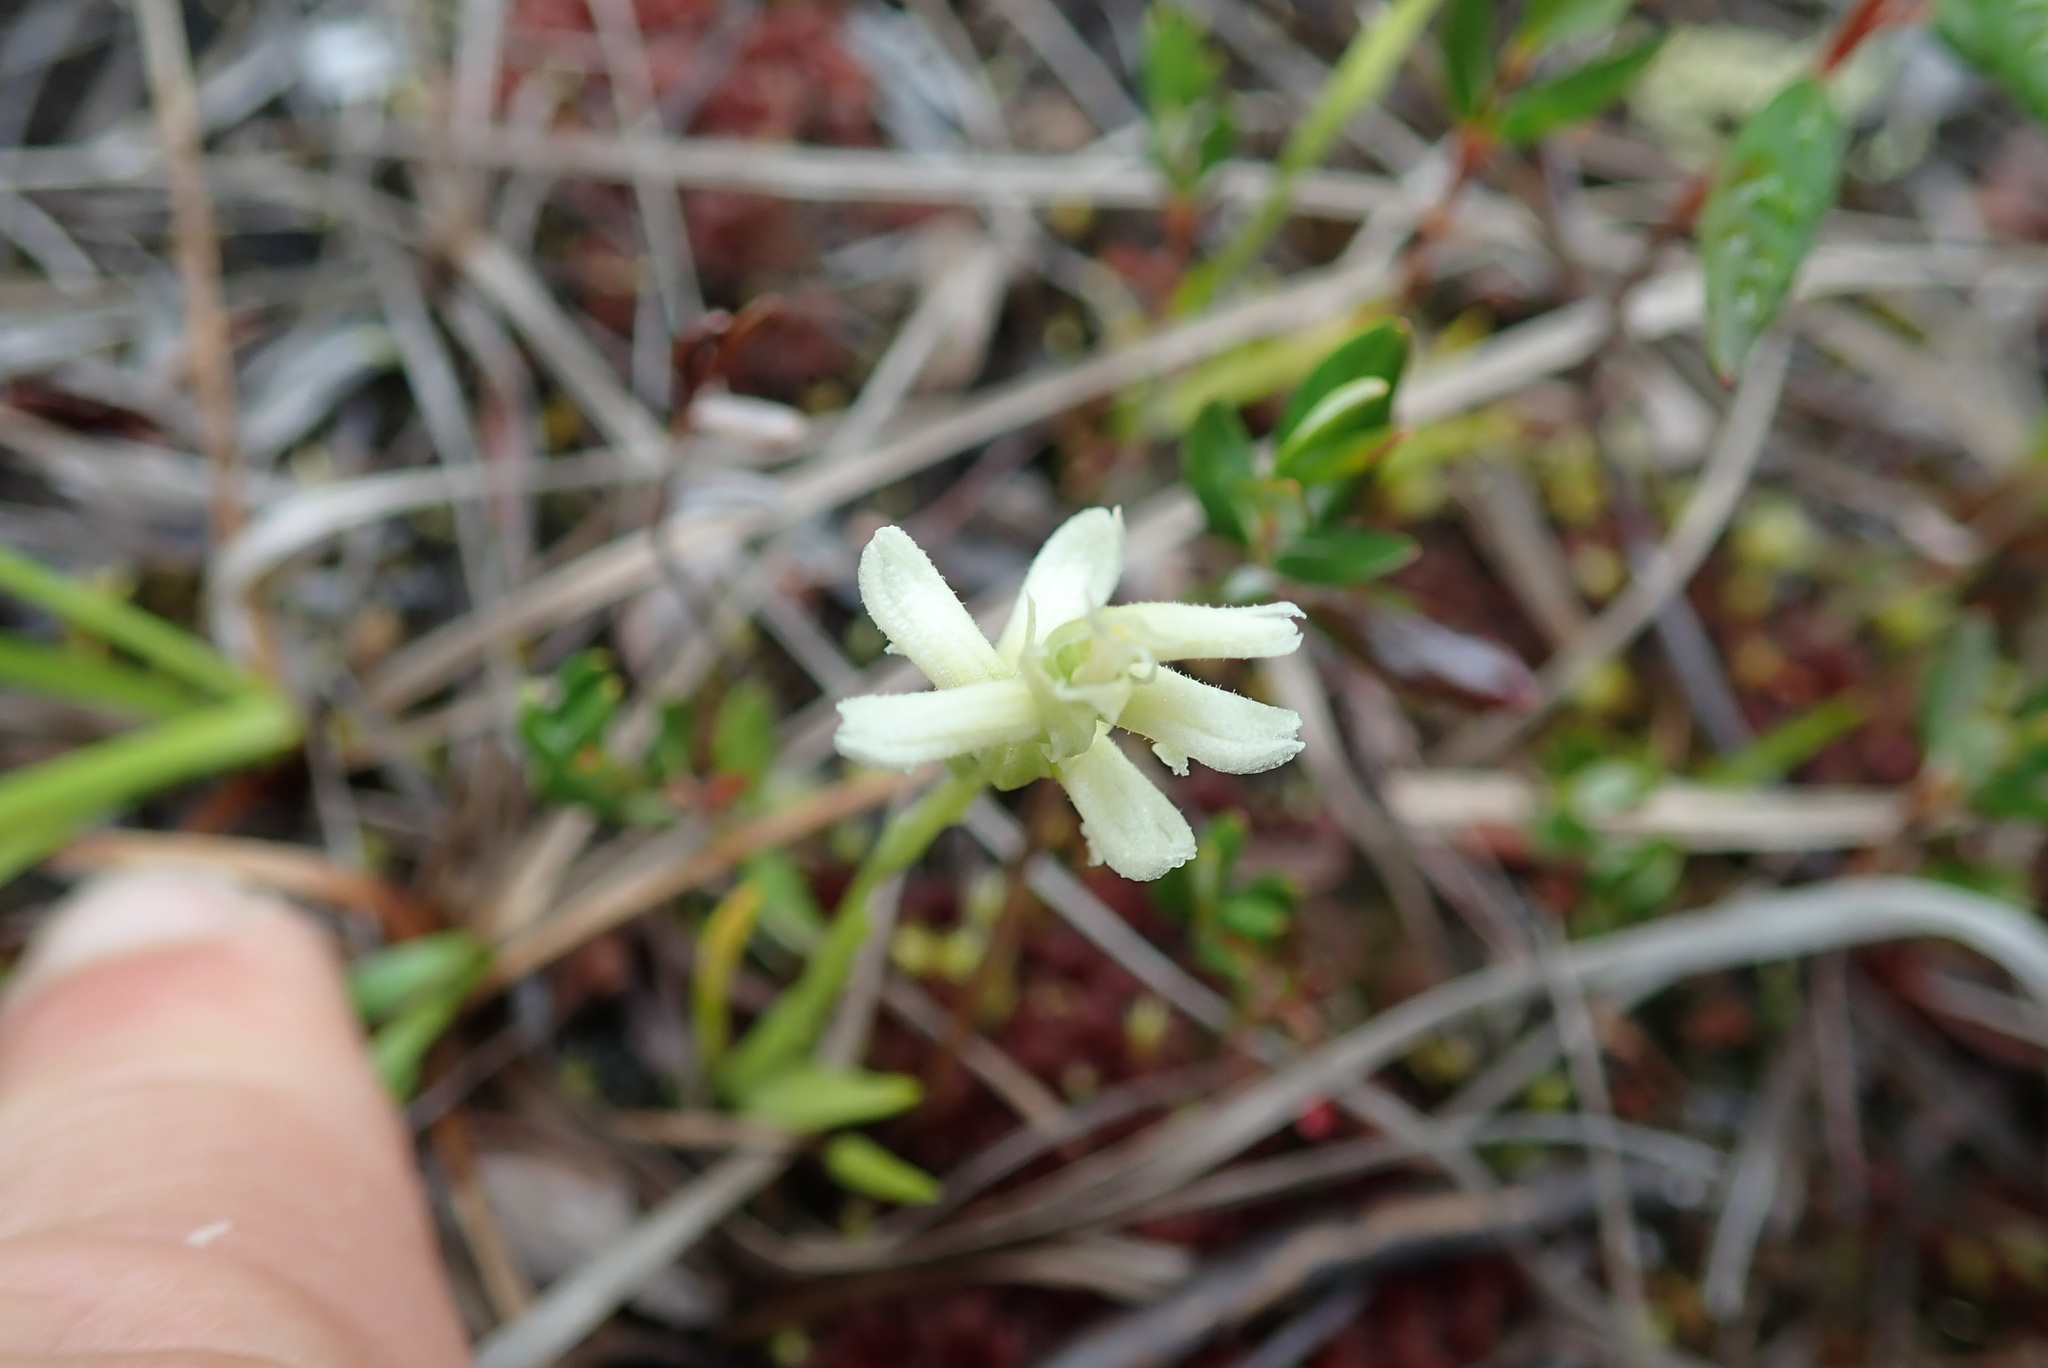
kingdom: Plantae
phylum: Tracheophyta
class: Liliopsida
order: Asparagales
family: Orchidaceae
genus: Spiranthes
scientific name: Spiranthes romanzoffiana
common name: Irish lady's-tresses
